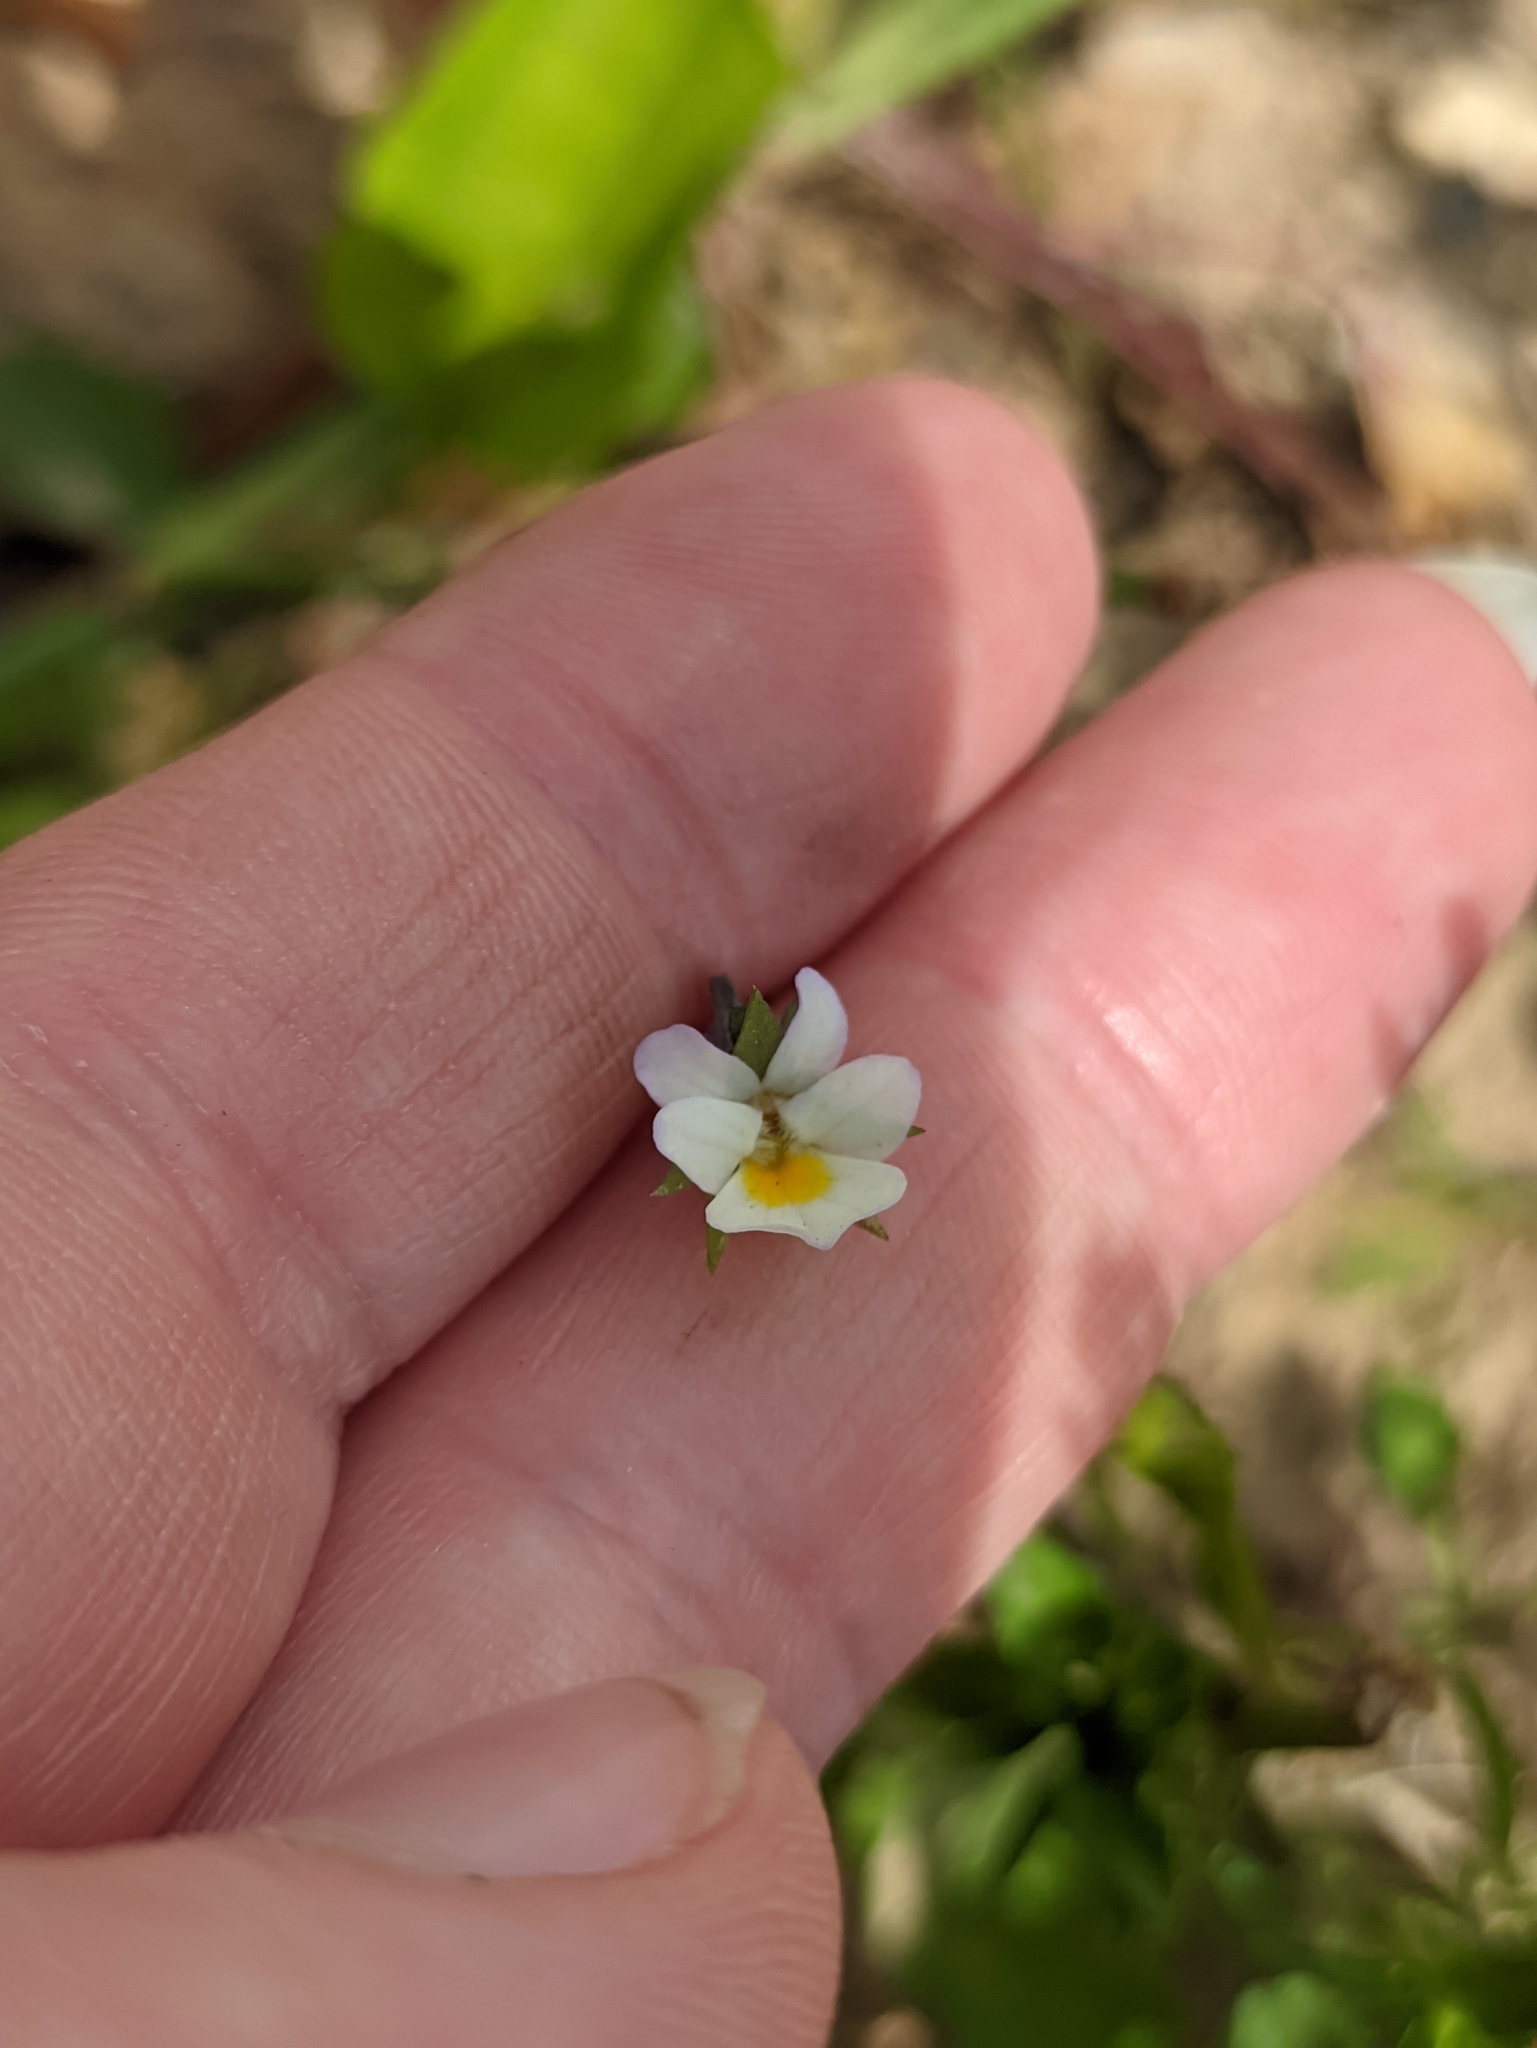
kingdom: Plantae
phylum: Tracheophyta
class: Magnoliopsida
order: Malpighiales
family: Violaceae
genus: Viola
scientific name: Viola arvensis
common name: Field pansy
